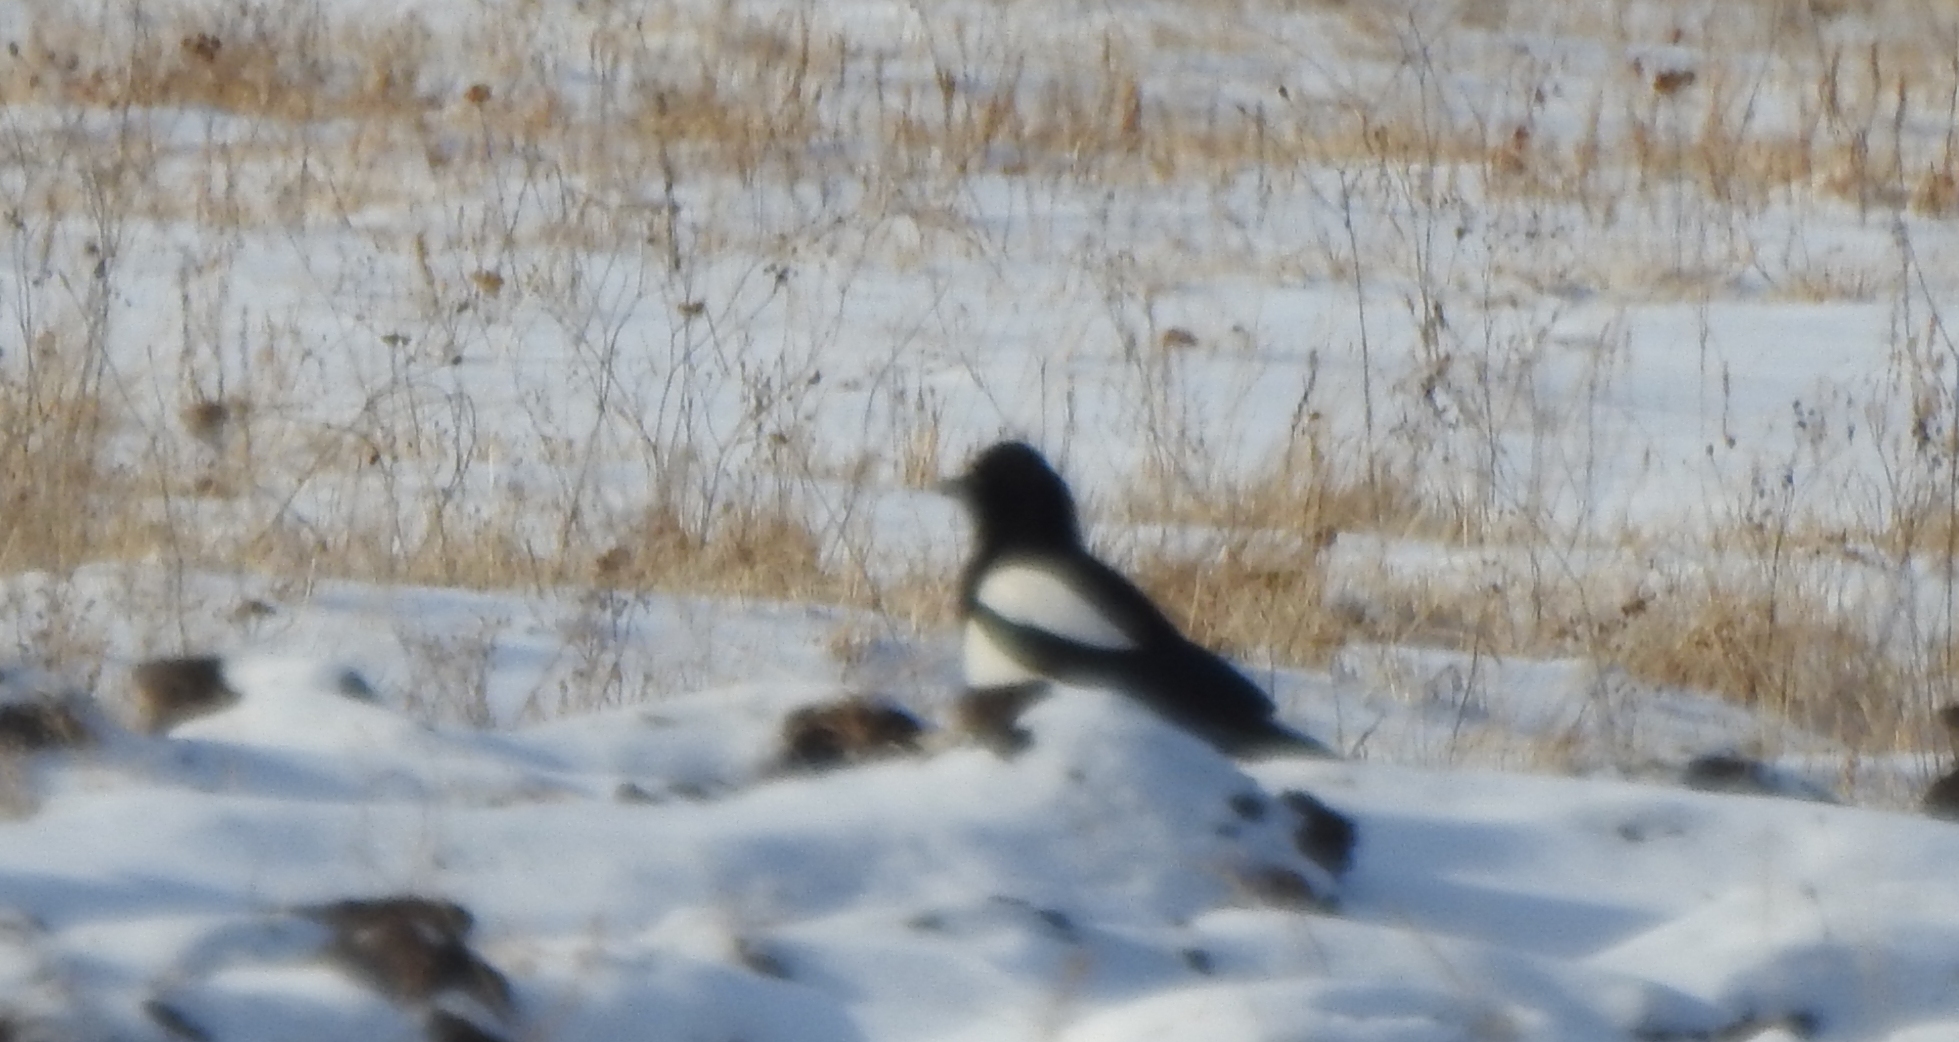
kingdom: Animalia
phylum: Chordata
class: Aves
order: Passeriformes
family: Corvidae
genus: Pica
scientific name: Pica pica
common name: Eurasian magpie
